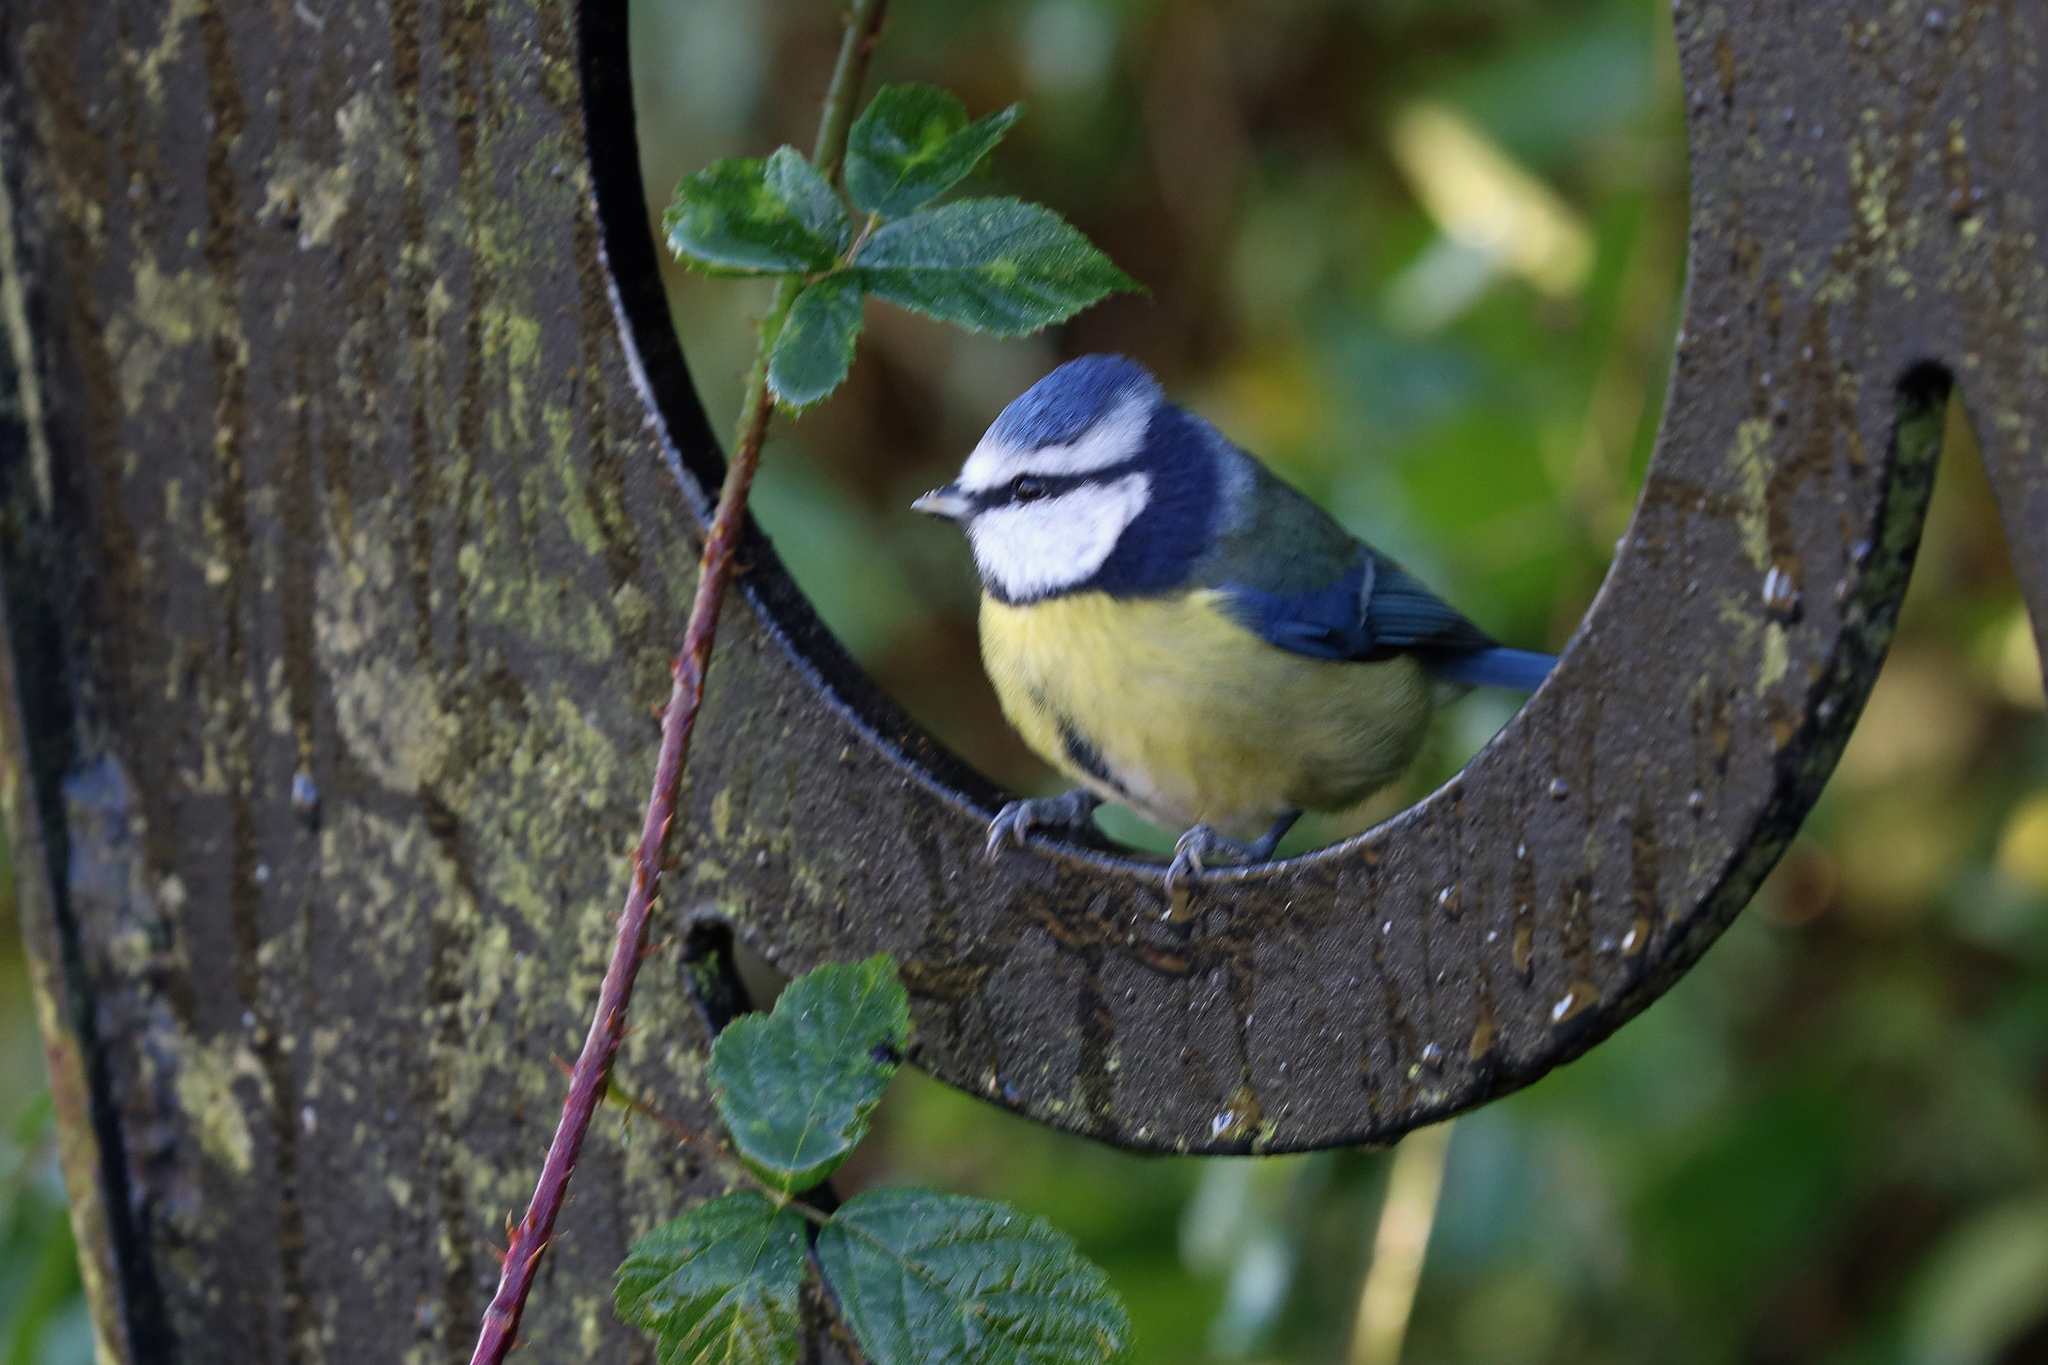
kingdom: Animalia
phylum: Chordata
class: Aves
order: Passeriformes
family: Paridae
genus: Cyanistes
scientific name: Cyanistes caeruleus
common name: Eurasian blue tit
